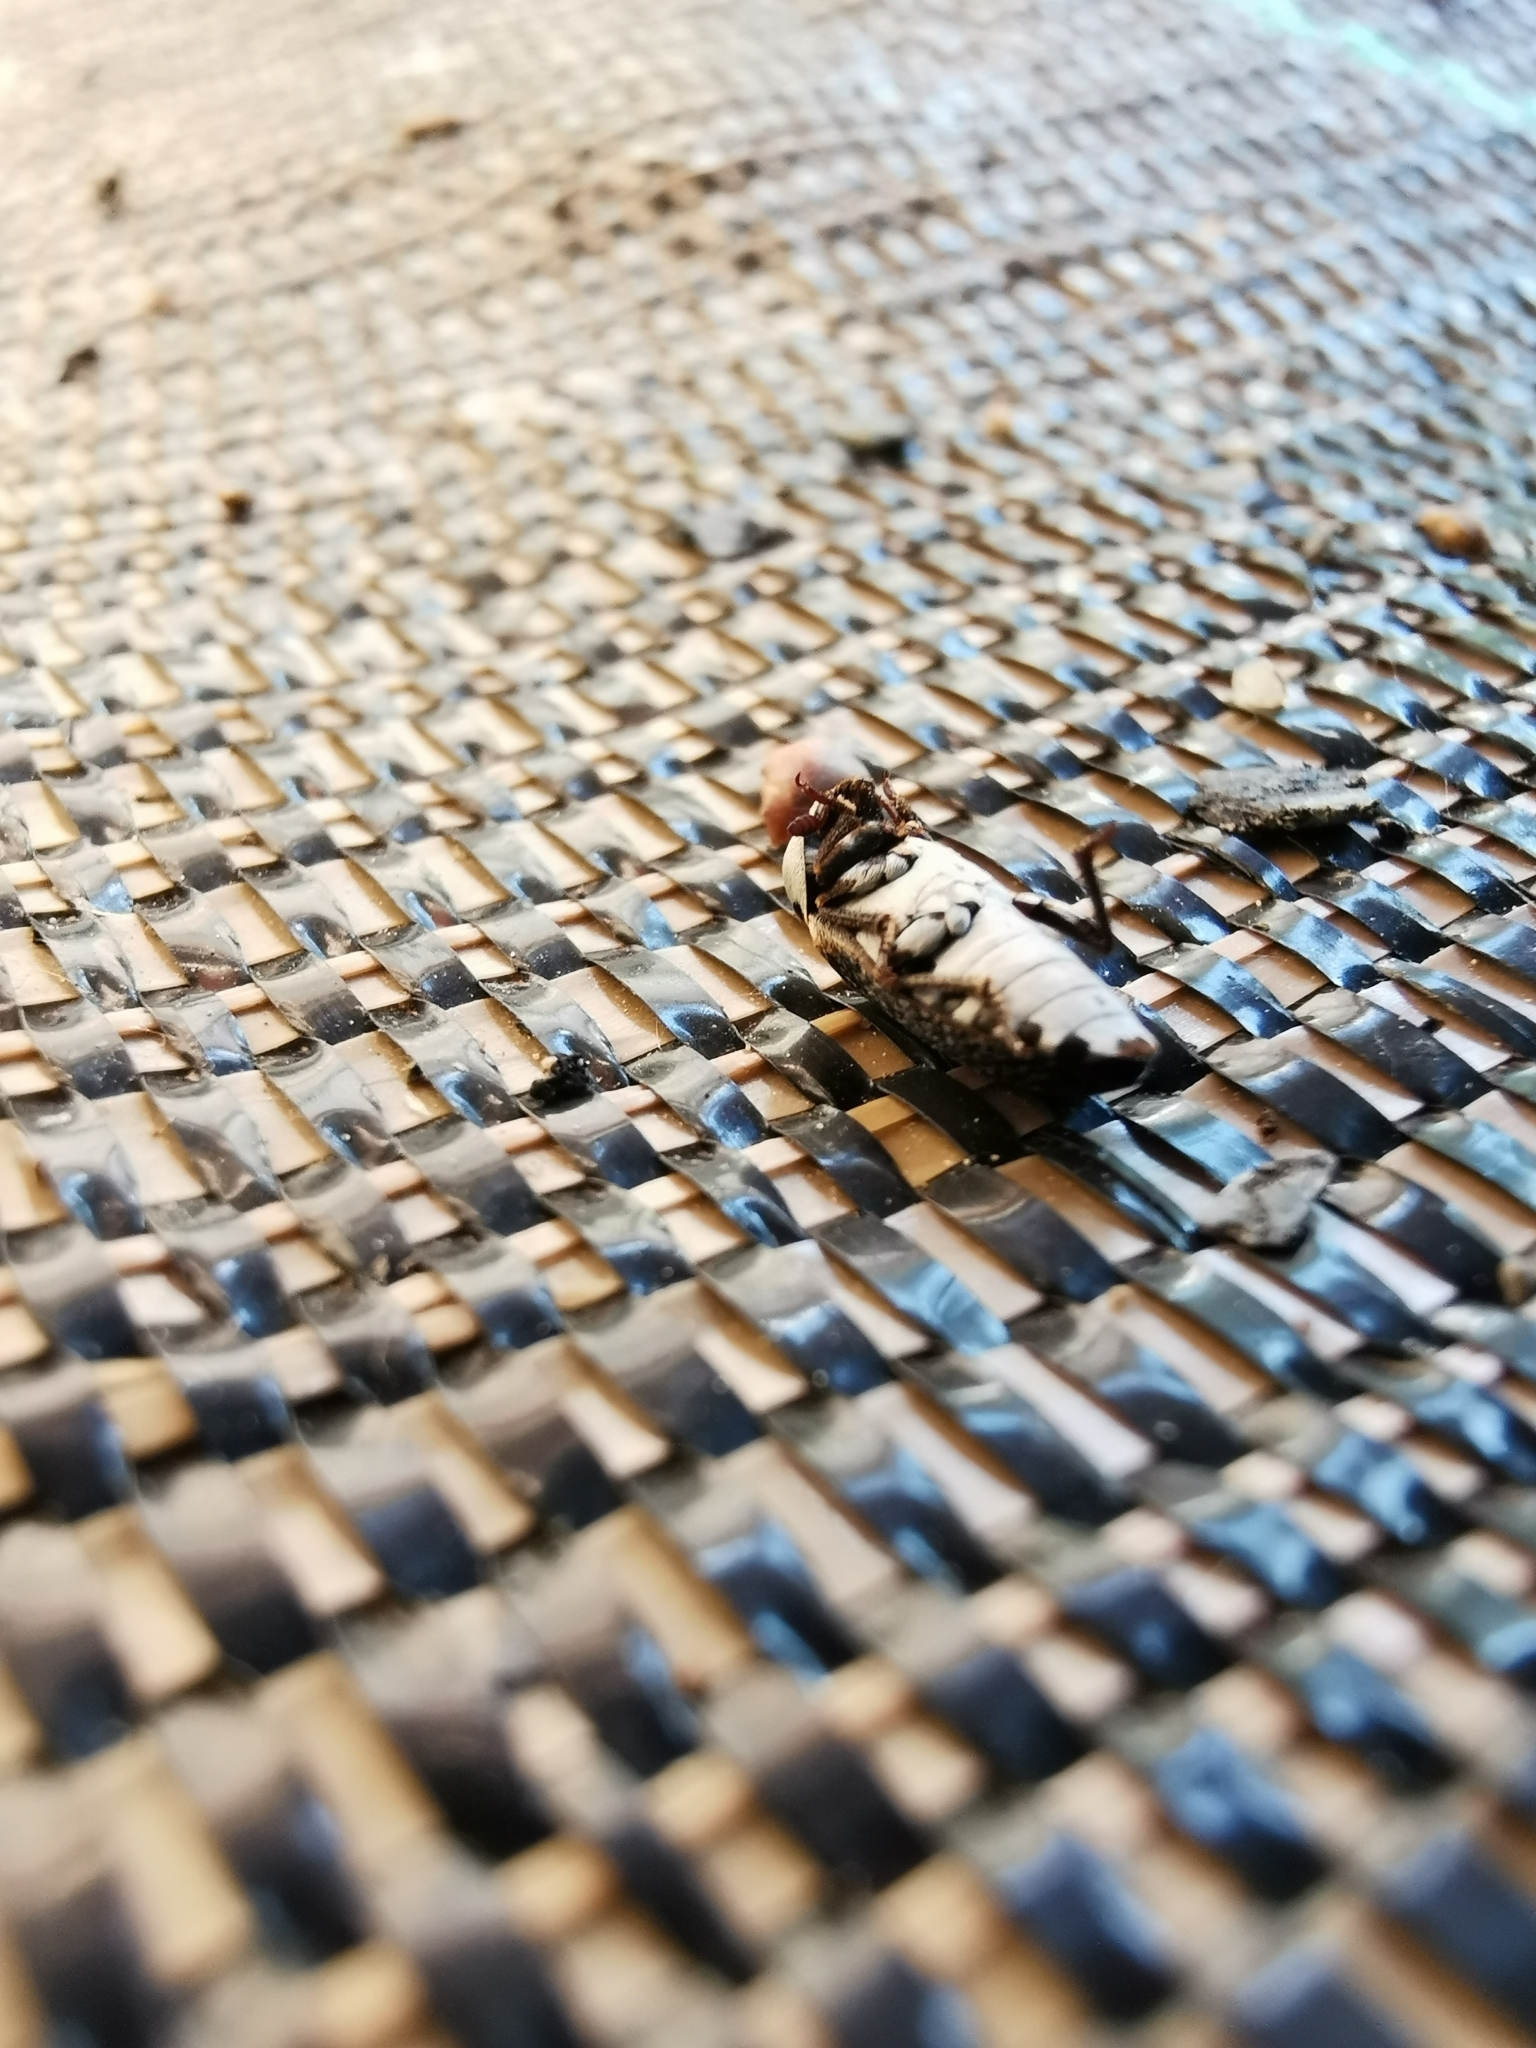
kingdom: Animalia
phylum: Arthropoda
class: Insecta
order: Coleoptera
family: Dermestidae
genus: Dermestes
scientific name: Dermestes frischi
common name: Frisch's carpet beetle
